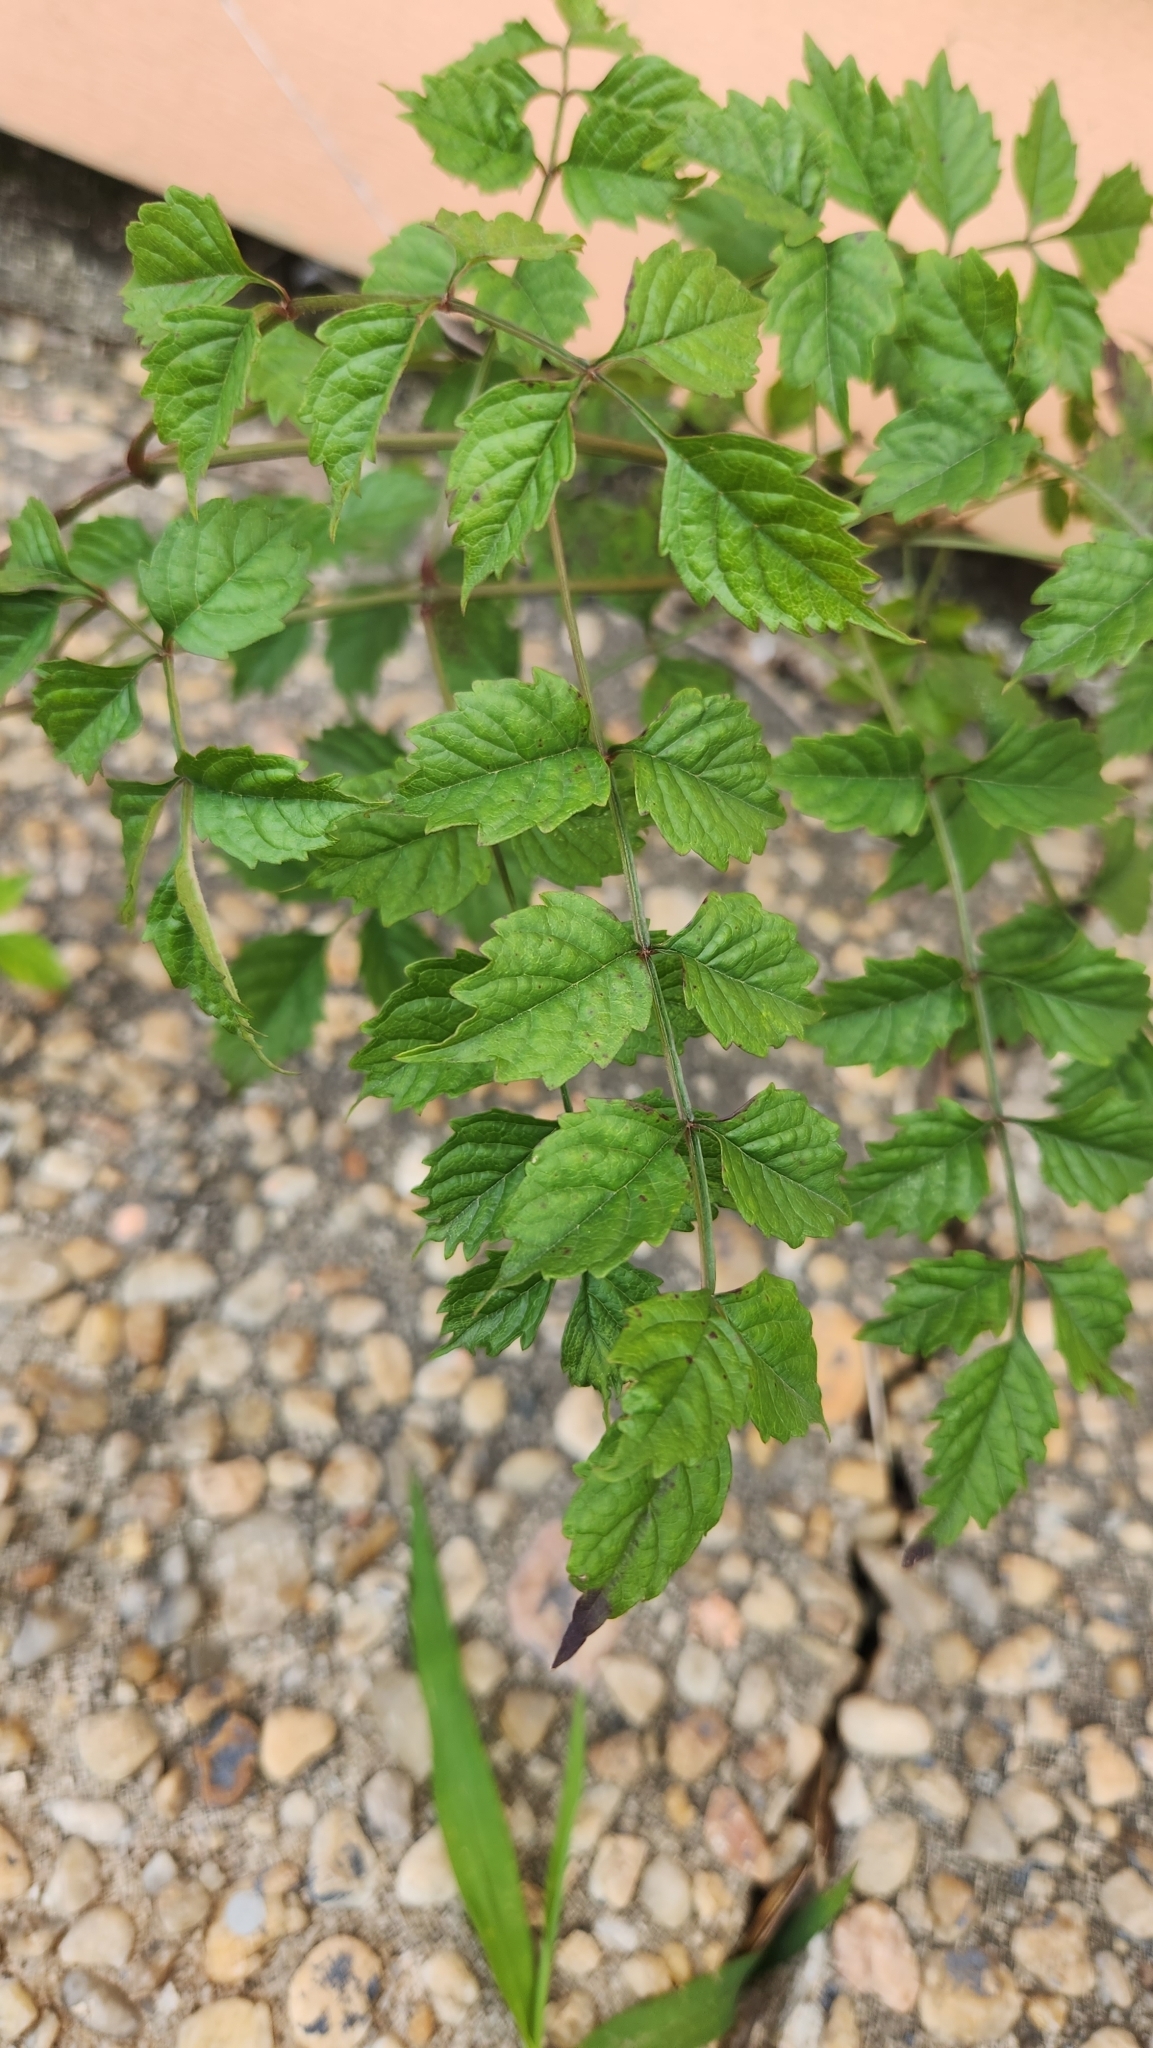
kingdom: Plantae
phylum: Tracheophyta
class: Magnoliopsida
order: Lamiales
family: Bignoniaceae
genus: Campsis
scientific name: Campsis radicans
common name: Trumpet-creeper
